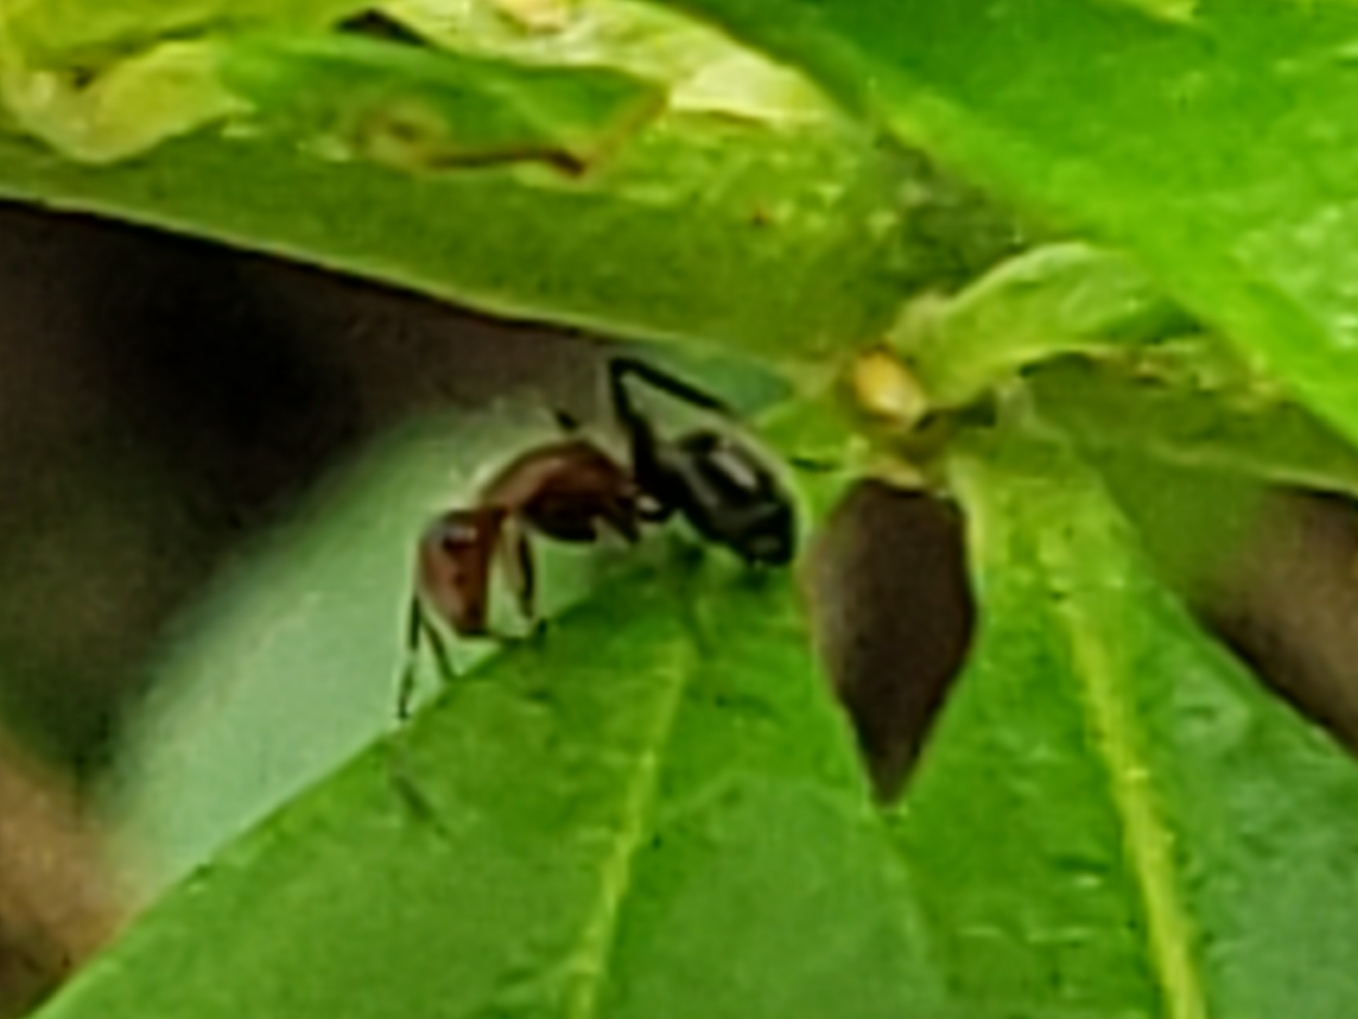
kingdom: Animalia
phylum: Arthropoda
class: Insecta
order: Hymenoptera
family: Formicidae
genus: Camponotus
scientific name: Camponotus planatus
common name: Compact carpenter ant
